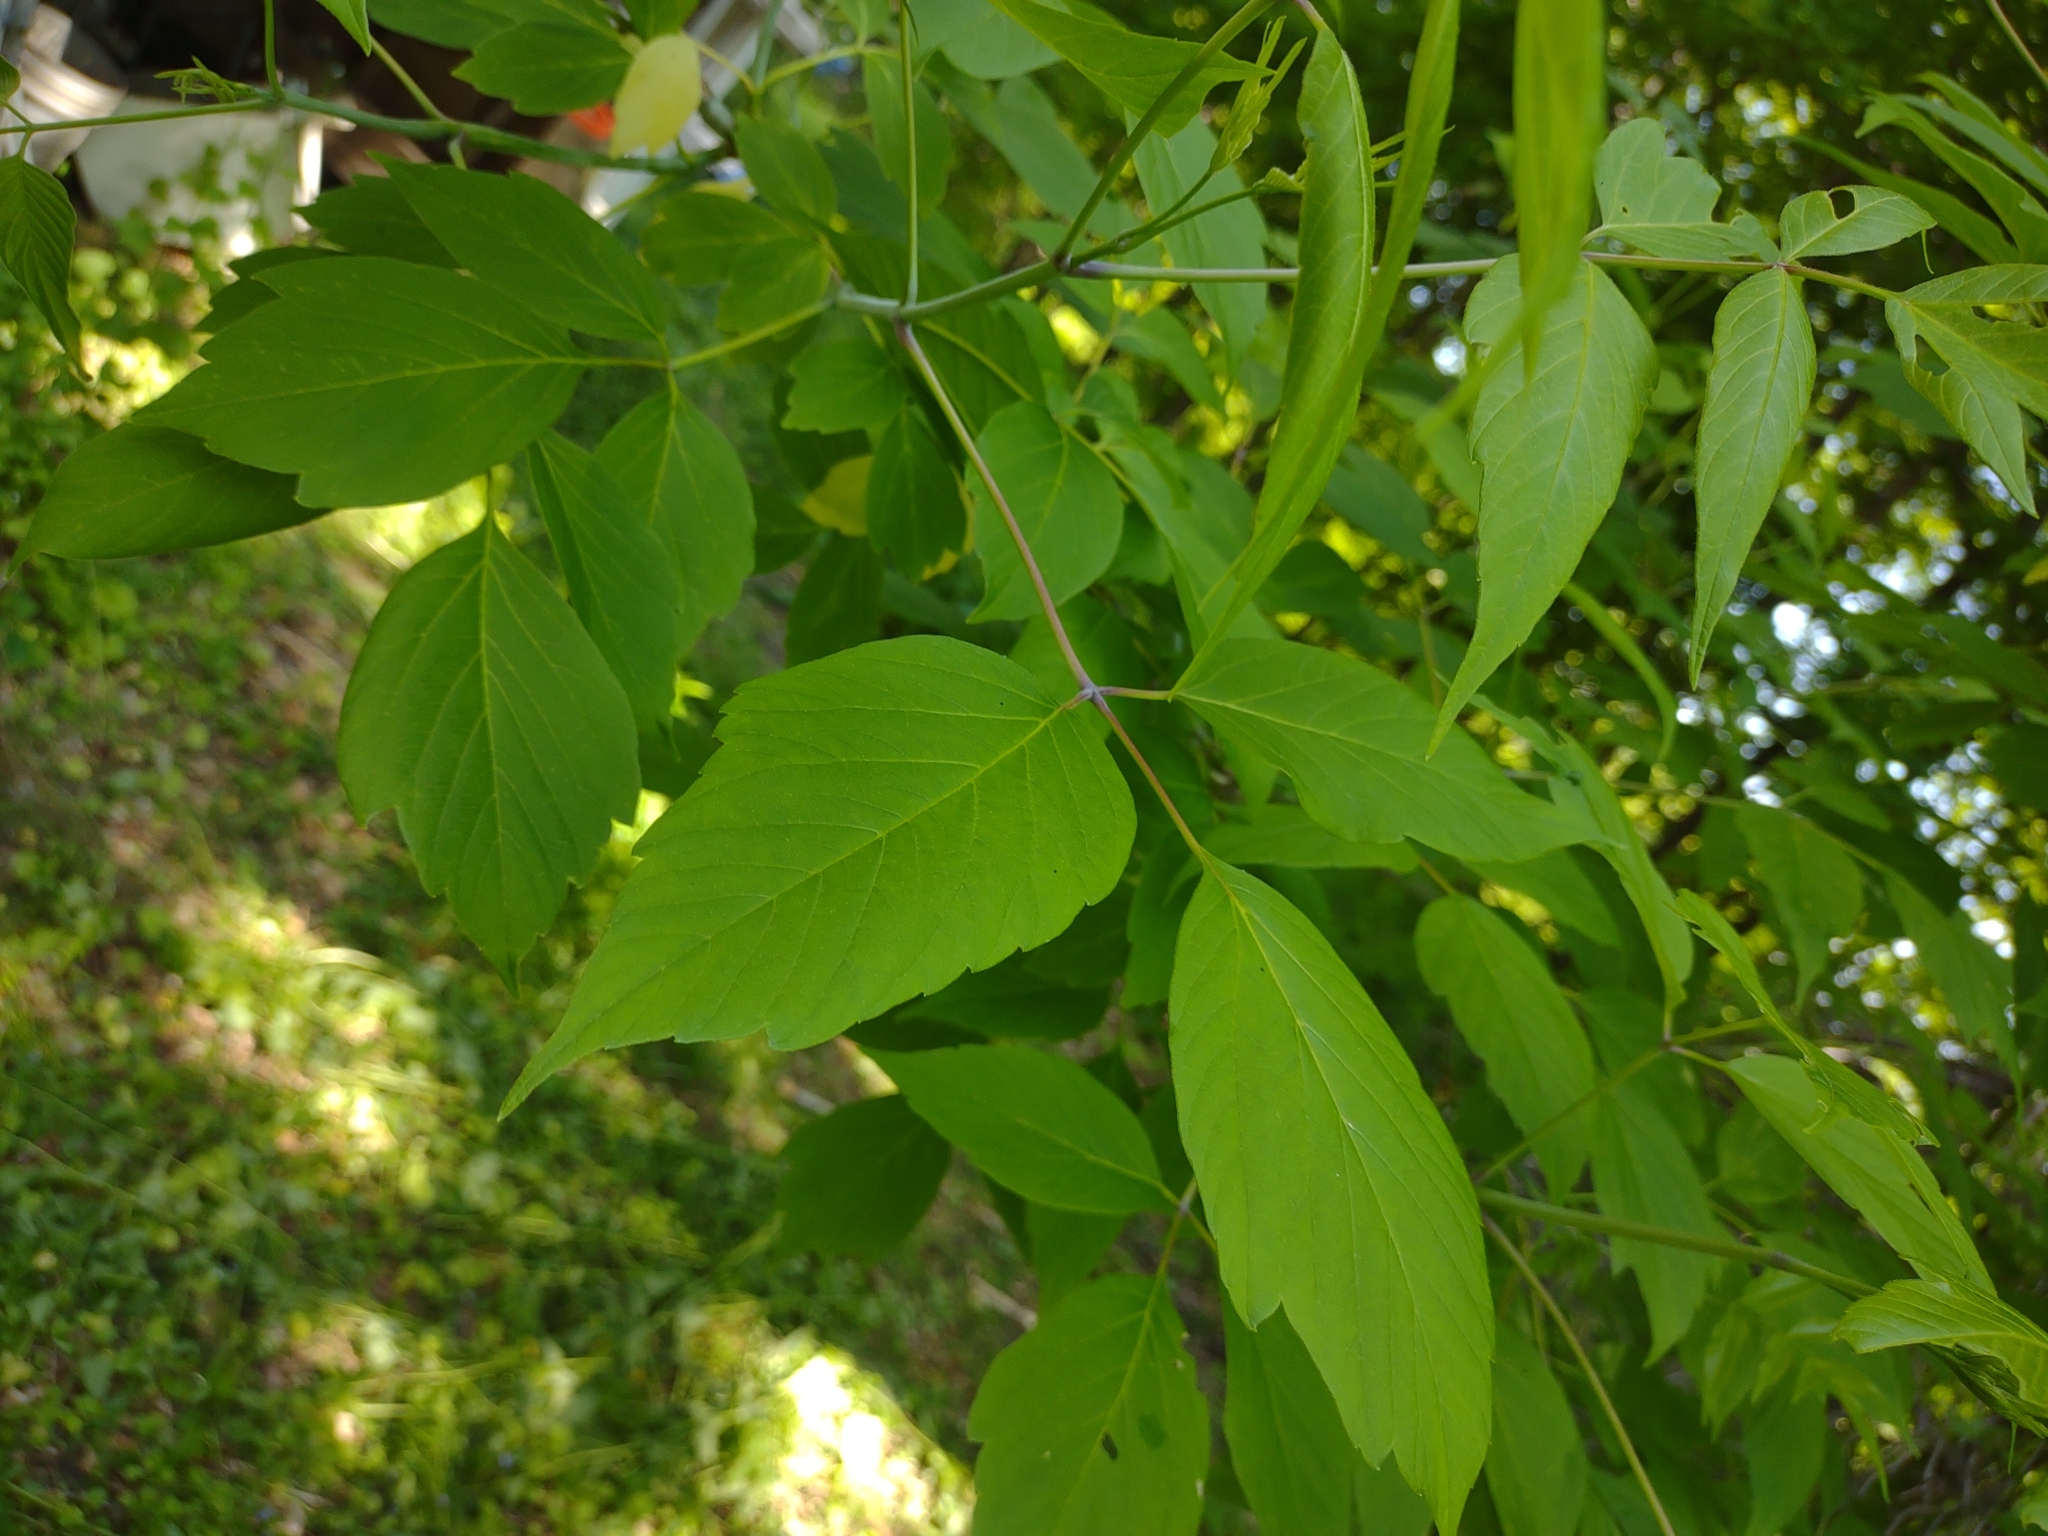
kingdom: Plantae
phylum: Tracheophyta
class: Magnoliopsida
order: Sapindales
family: Sapindaceae
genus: Acer
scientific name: Acer negundo
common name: Ashleaf maple
